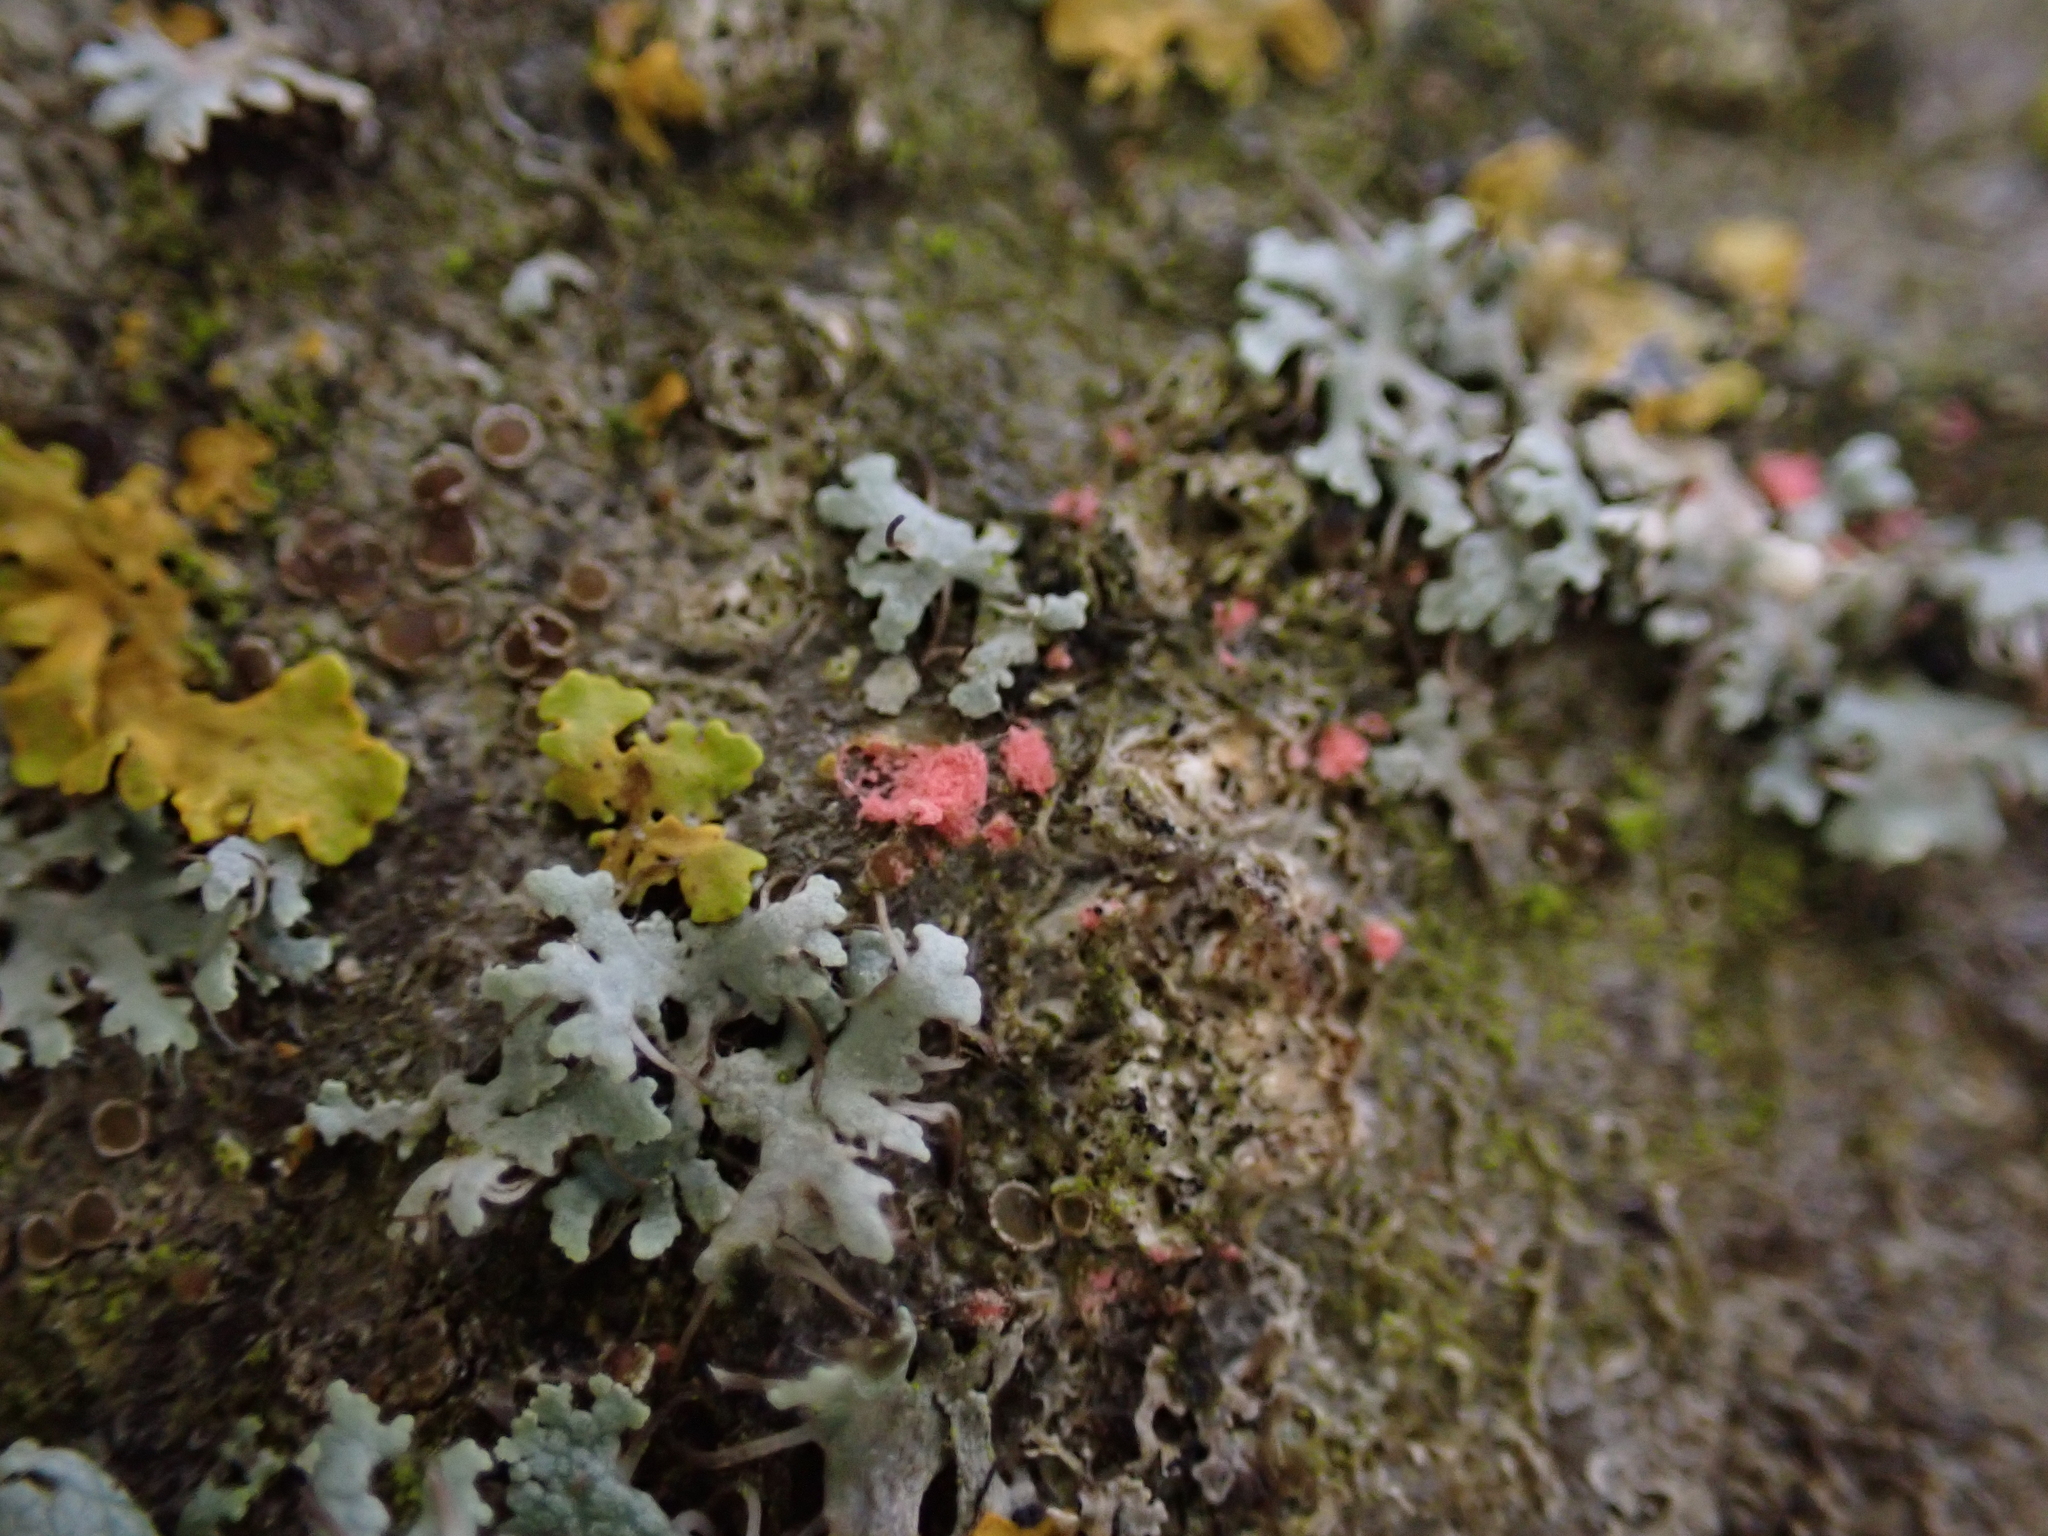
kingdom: Fungi
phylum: Ascomycota
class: Sordariomycetes
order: Hypocreales
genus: Illosporiopsis
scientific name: Illosporiopsis christiansenii
